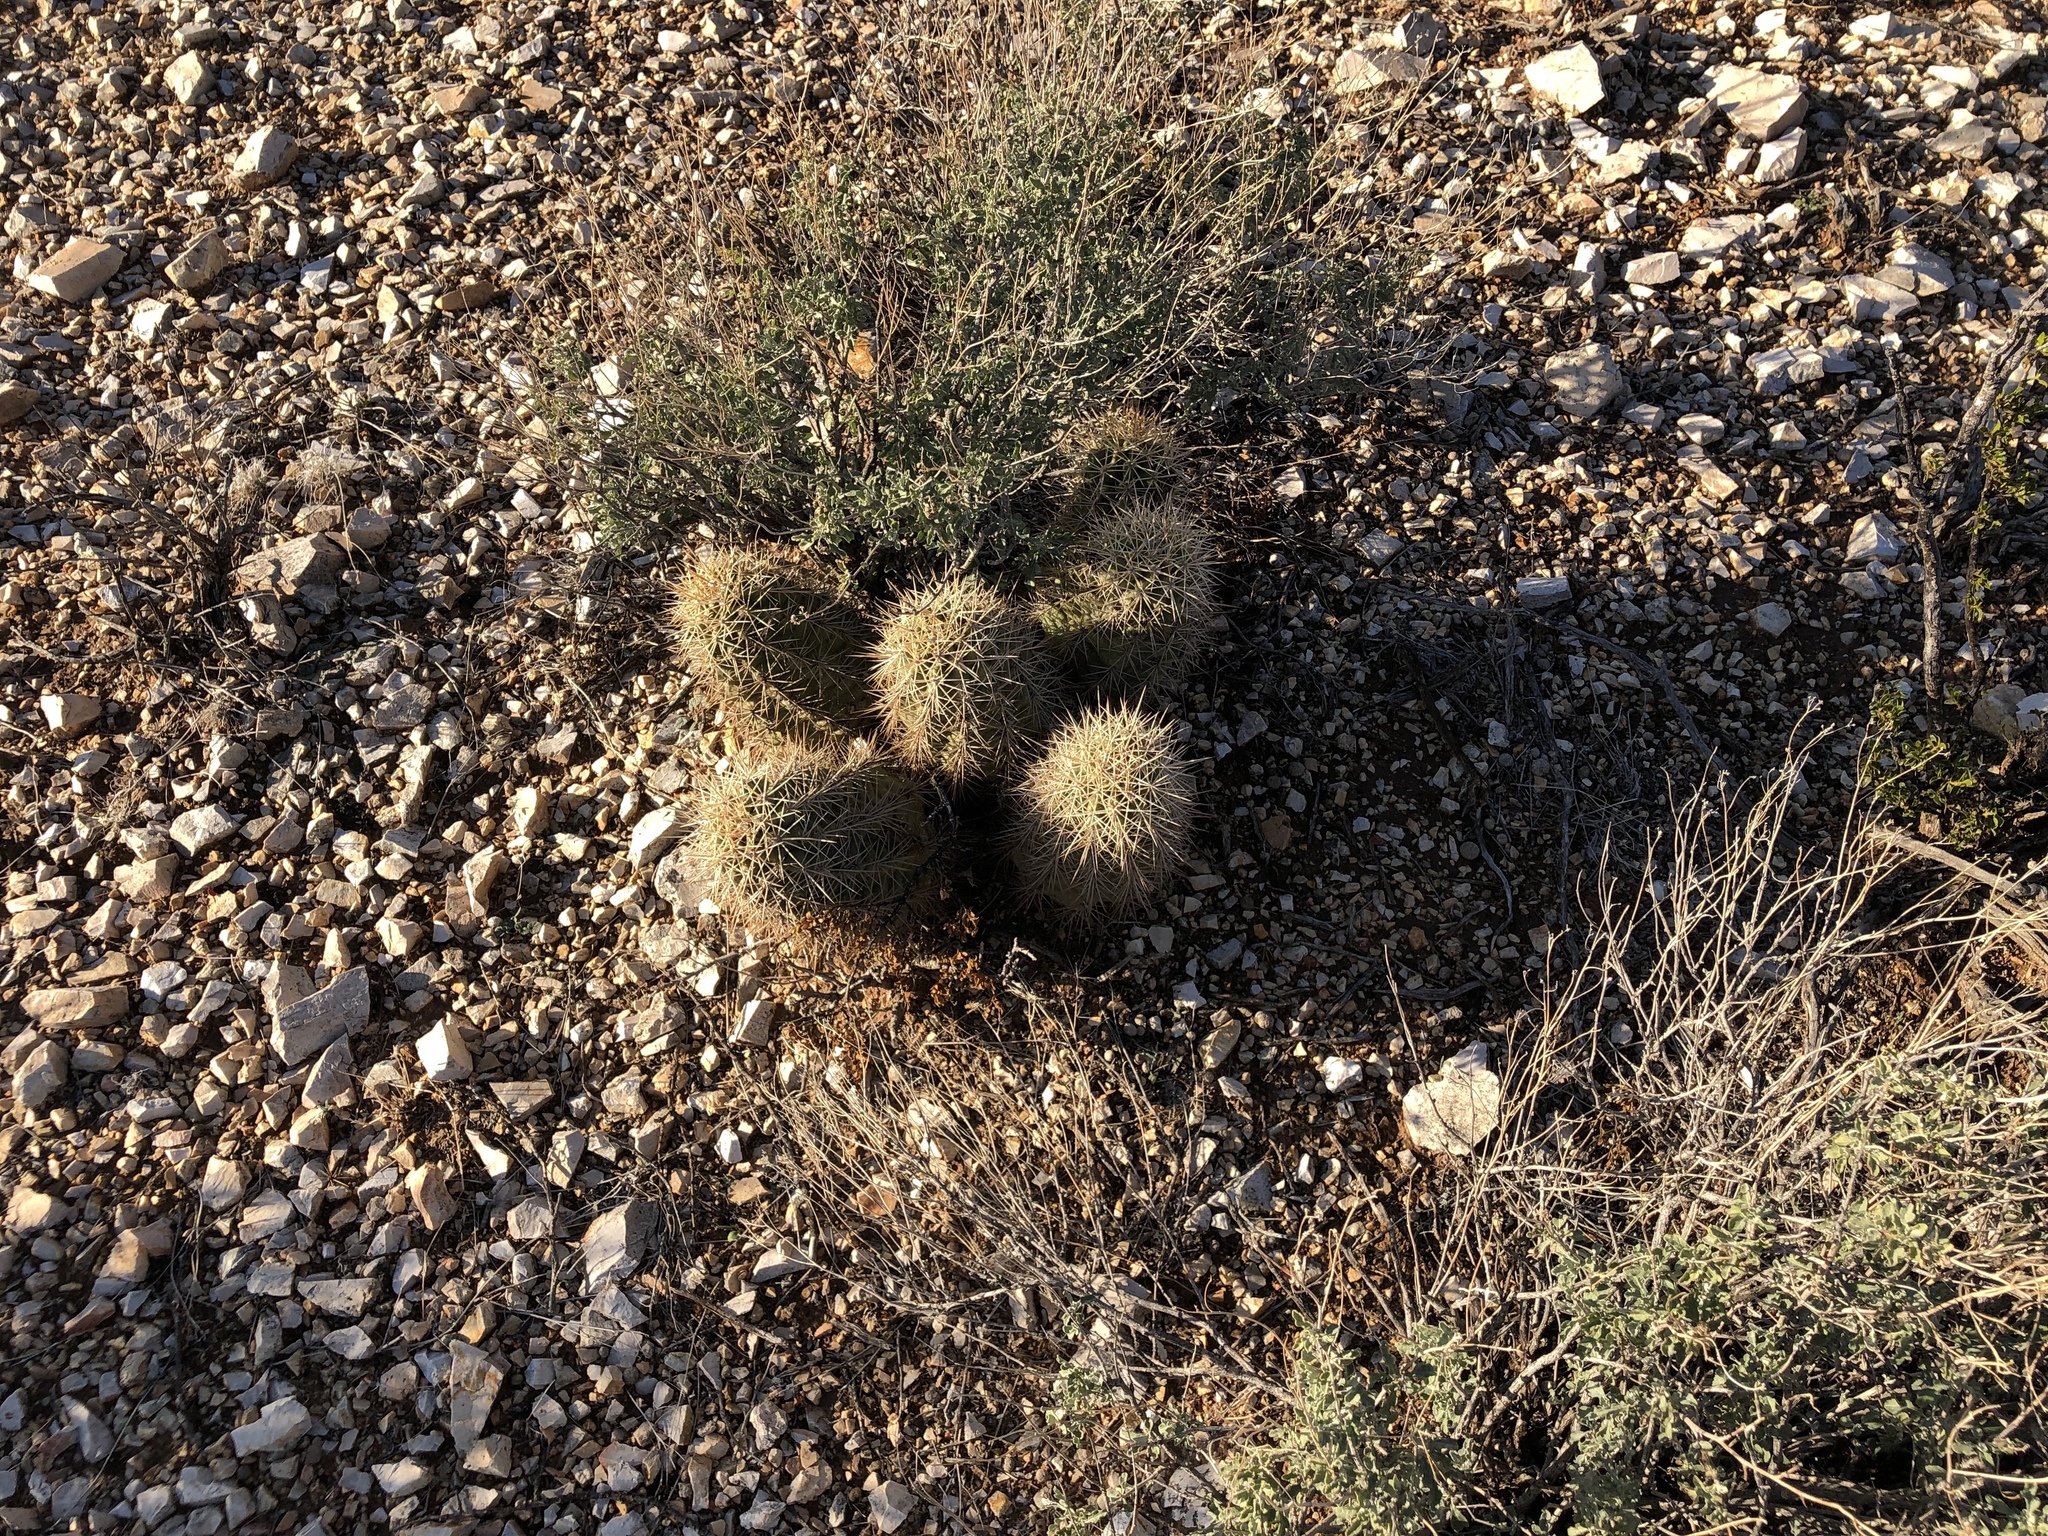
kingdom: Plantae
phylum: Tracheophyta
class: Magnoliopsida
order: Caryophyllales
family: Cactaceae
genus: Echinocereus
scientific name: Echinocereus coccineus
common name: Scarlet hedgehog cactus
